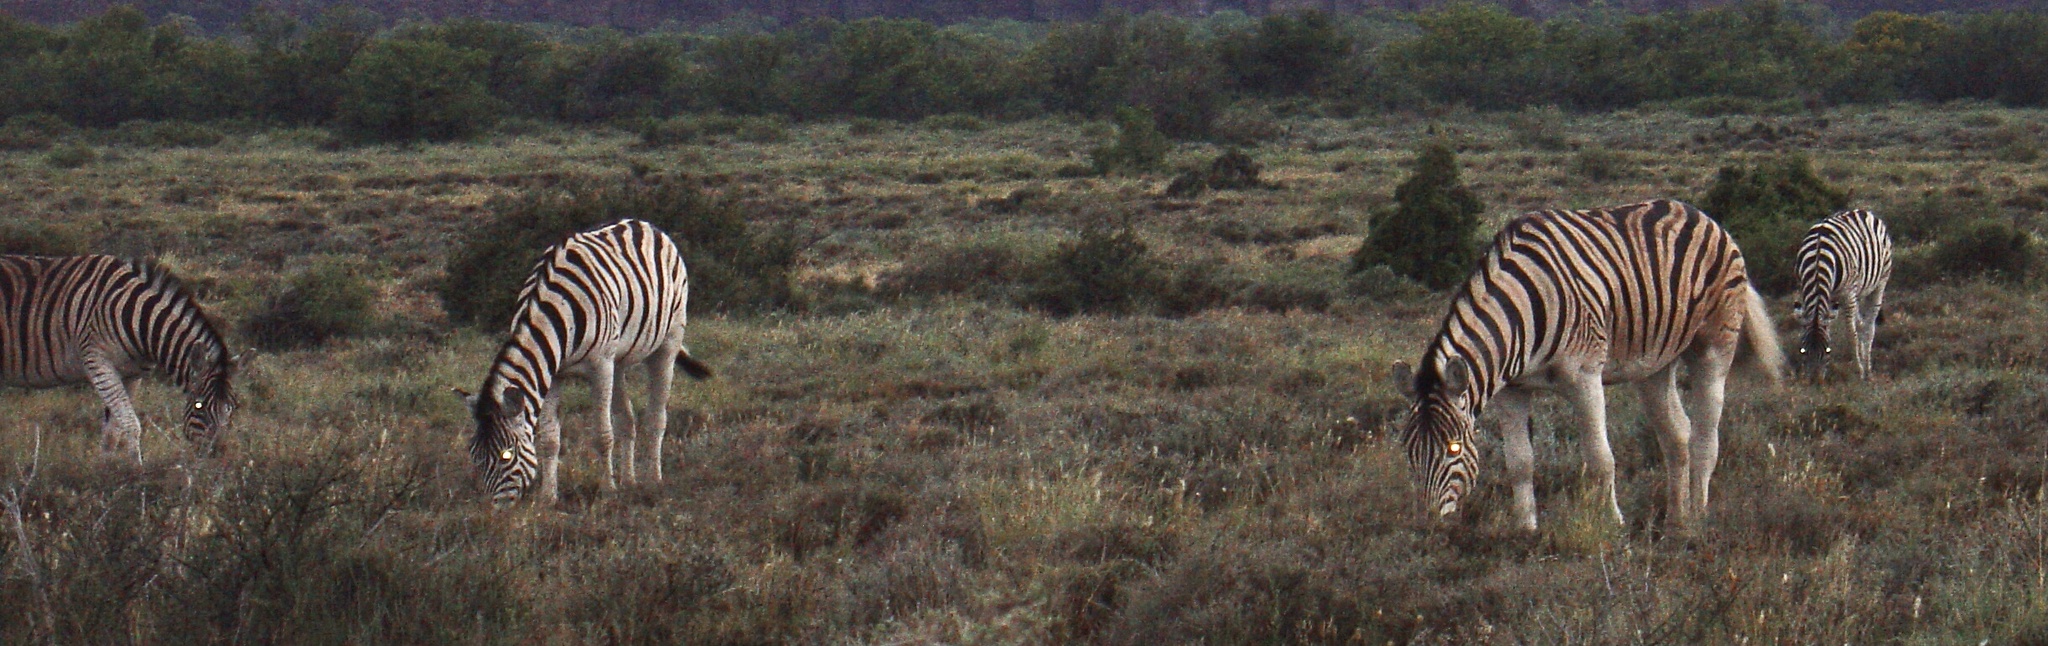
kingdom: Animalia
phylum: Chordata
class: Mammalia
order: Perissodactyla
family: Equidae
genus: Equus
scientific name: Equus quagga
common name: Plains zebra
